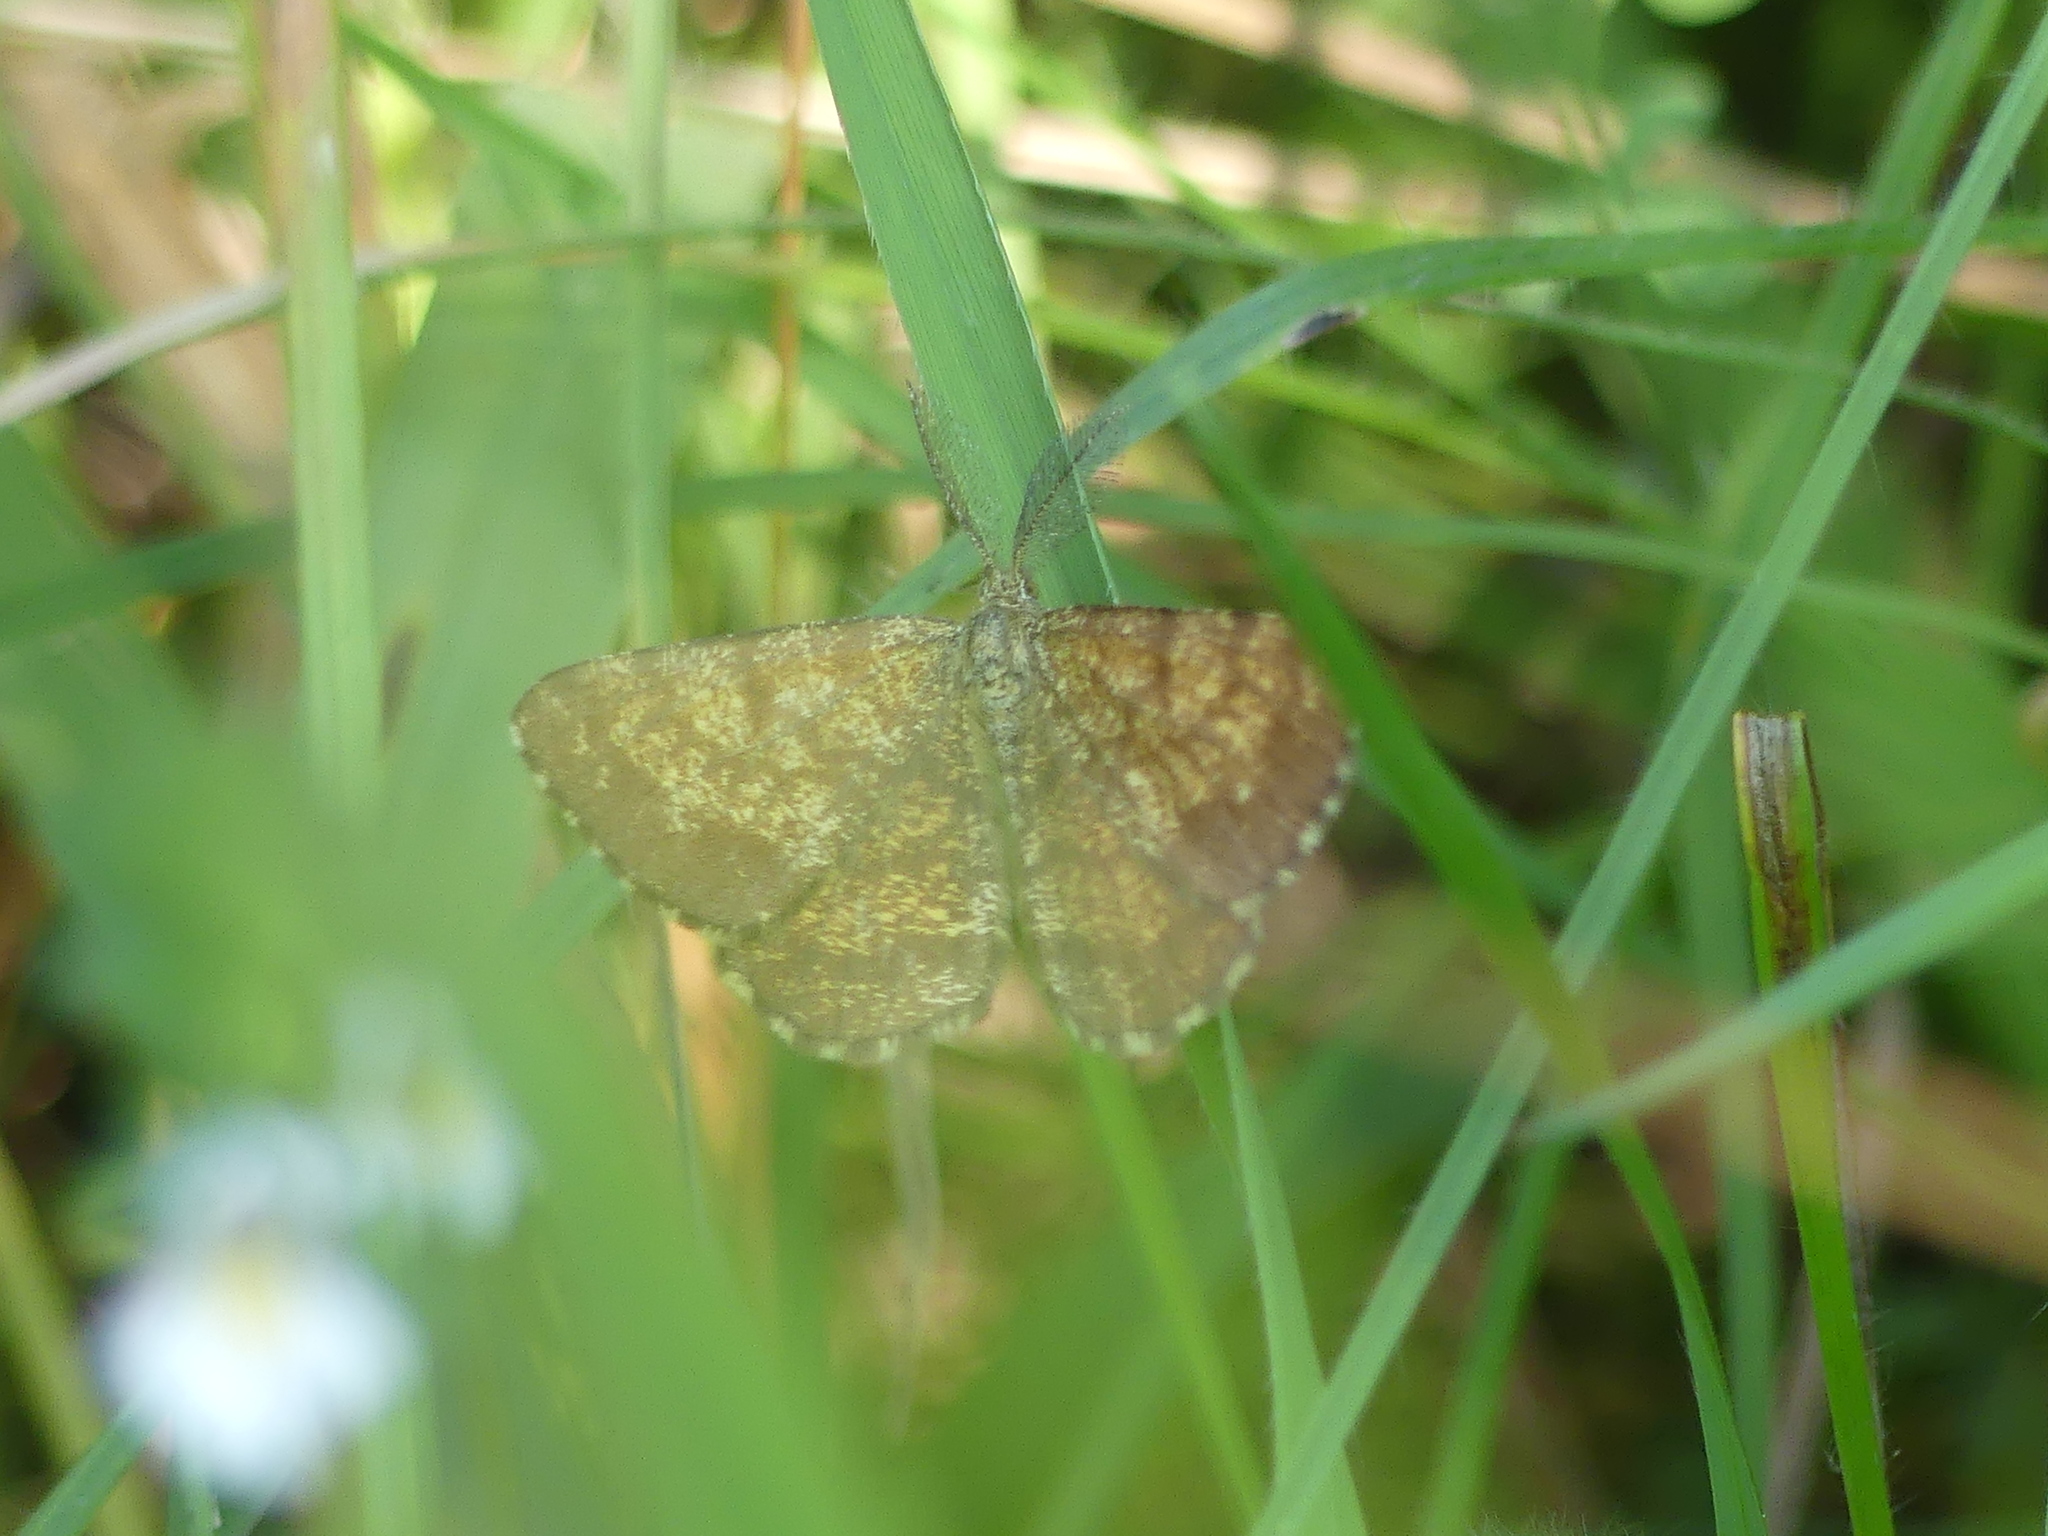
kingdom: Animalia
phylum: Arthropoda
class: Insecta
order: Lepidoptera
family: Geometridae
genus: Ematurga
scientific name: Ematurga atomaria
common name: Common heath
